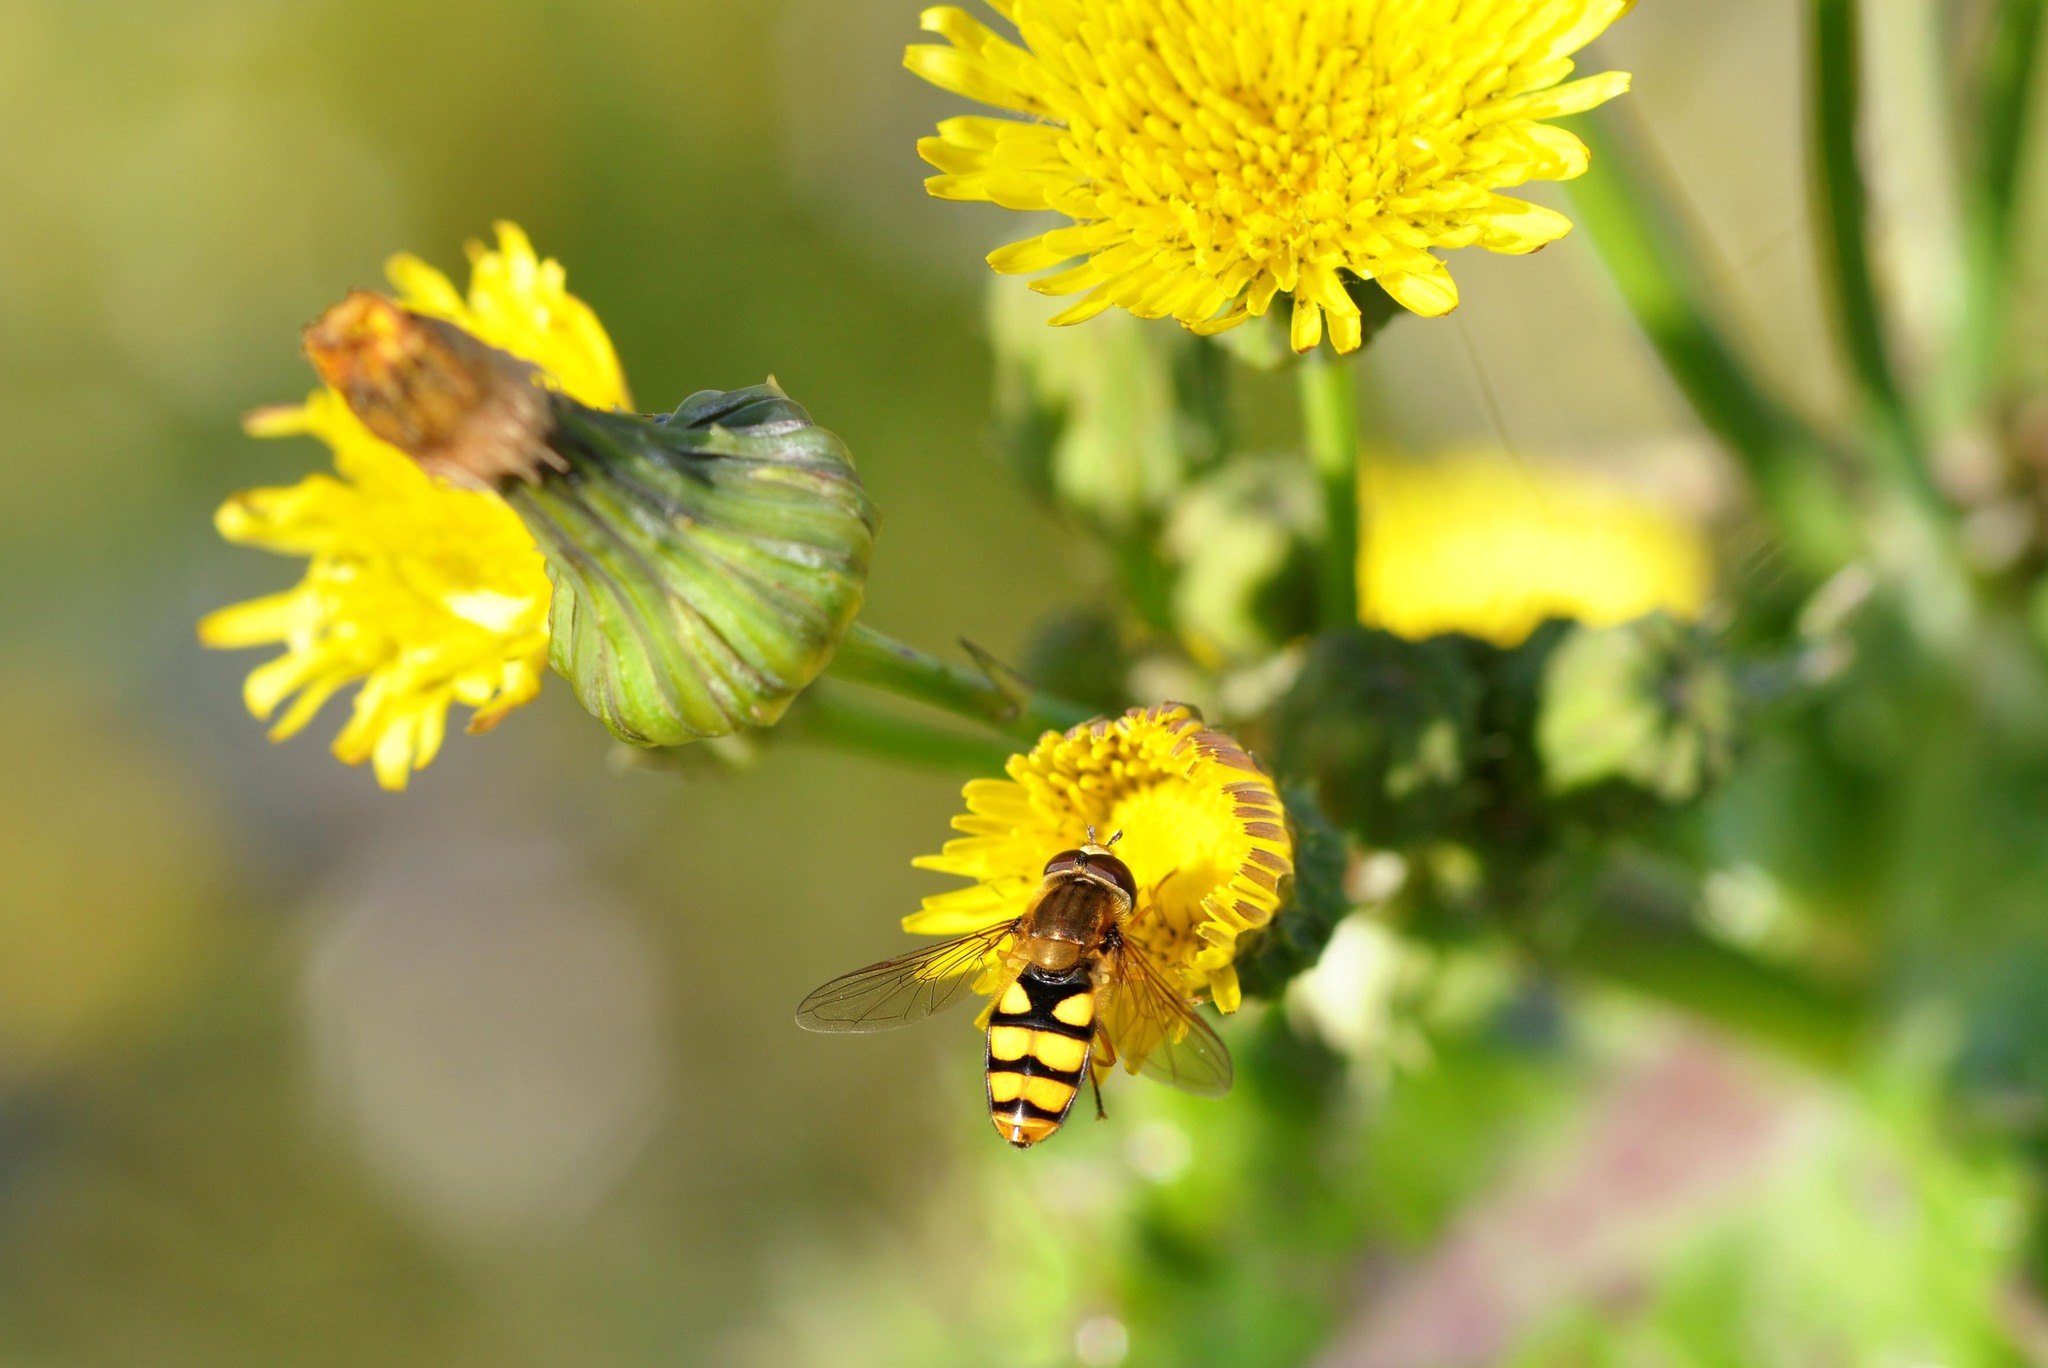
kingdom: Animalia
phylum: Arthropoda
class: Insecta
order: Diptera
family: Syrphidae
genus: Eupeodes
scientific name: Eupeodes latifasciatus
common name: Variable aphideater
